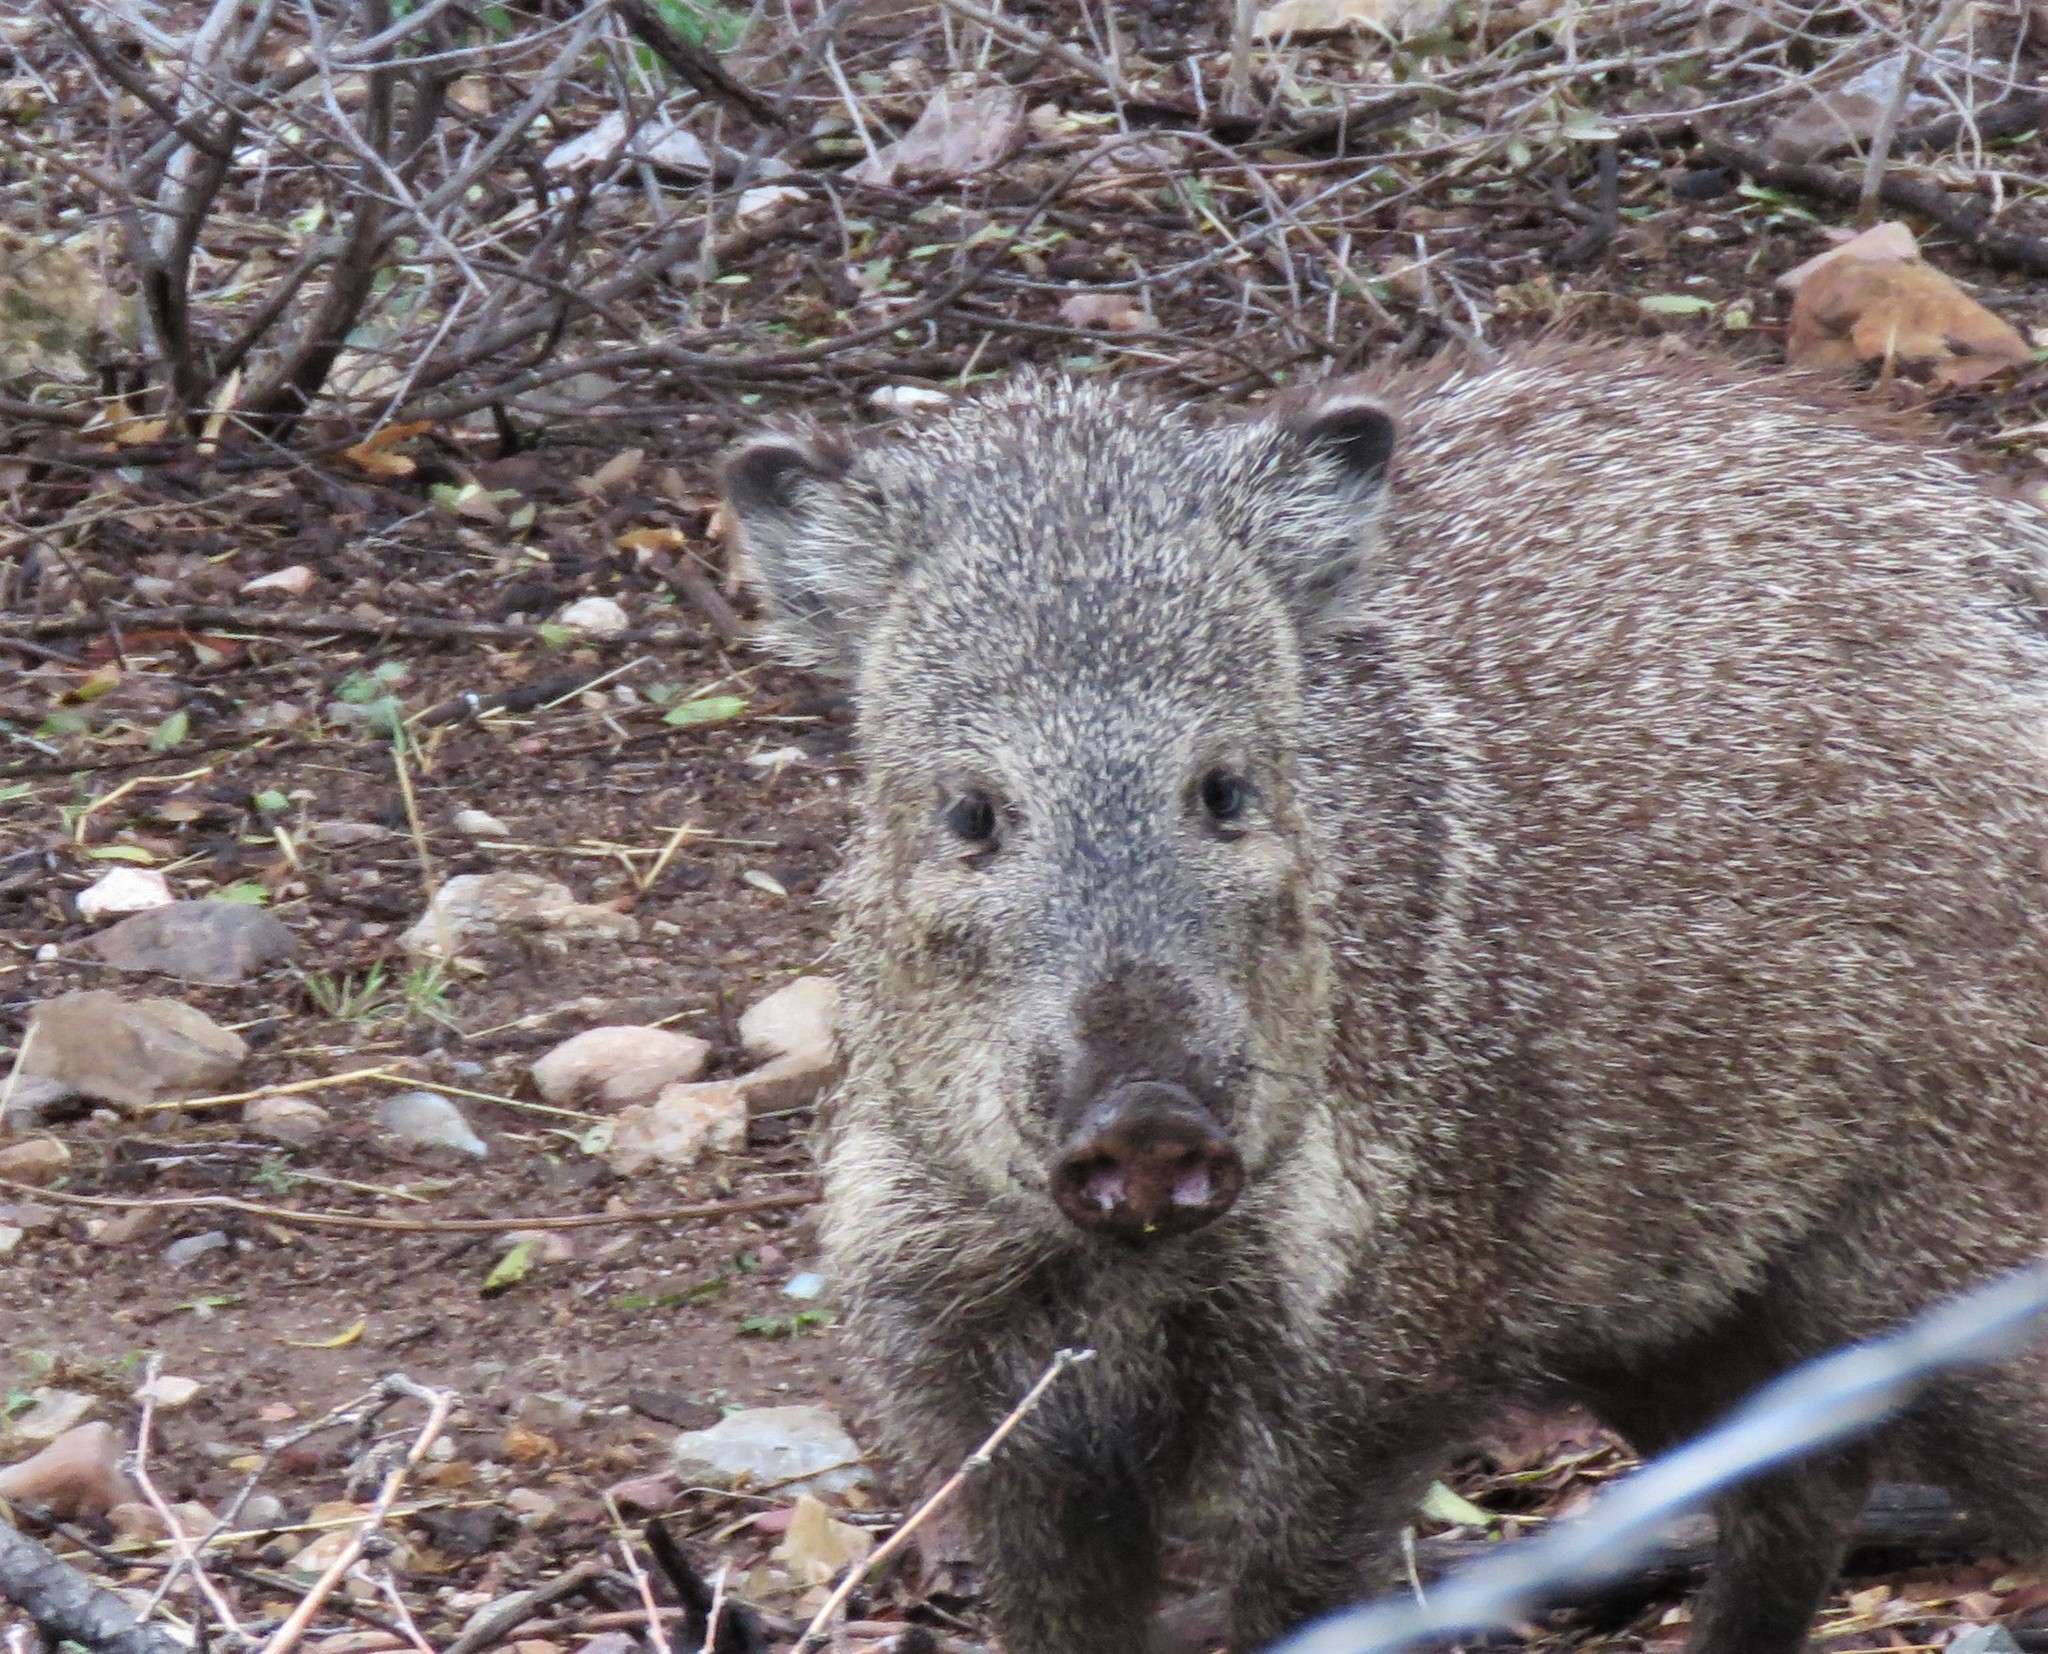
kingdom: Animalia
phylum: Chordata
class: Mammalia
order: Artiodactyla
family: Tayassuidae
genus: Pecari
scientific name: Pecari tajacu
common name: Collared peccary
